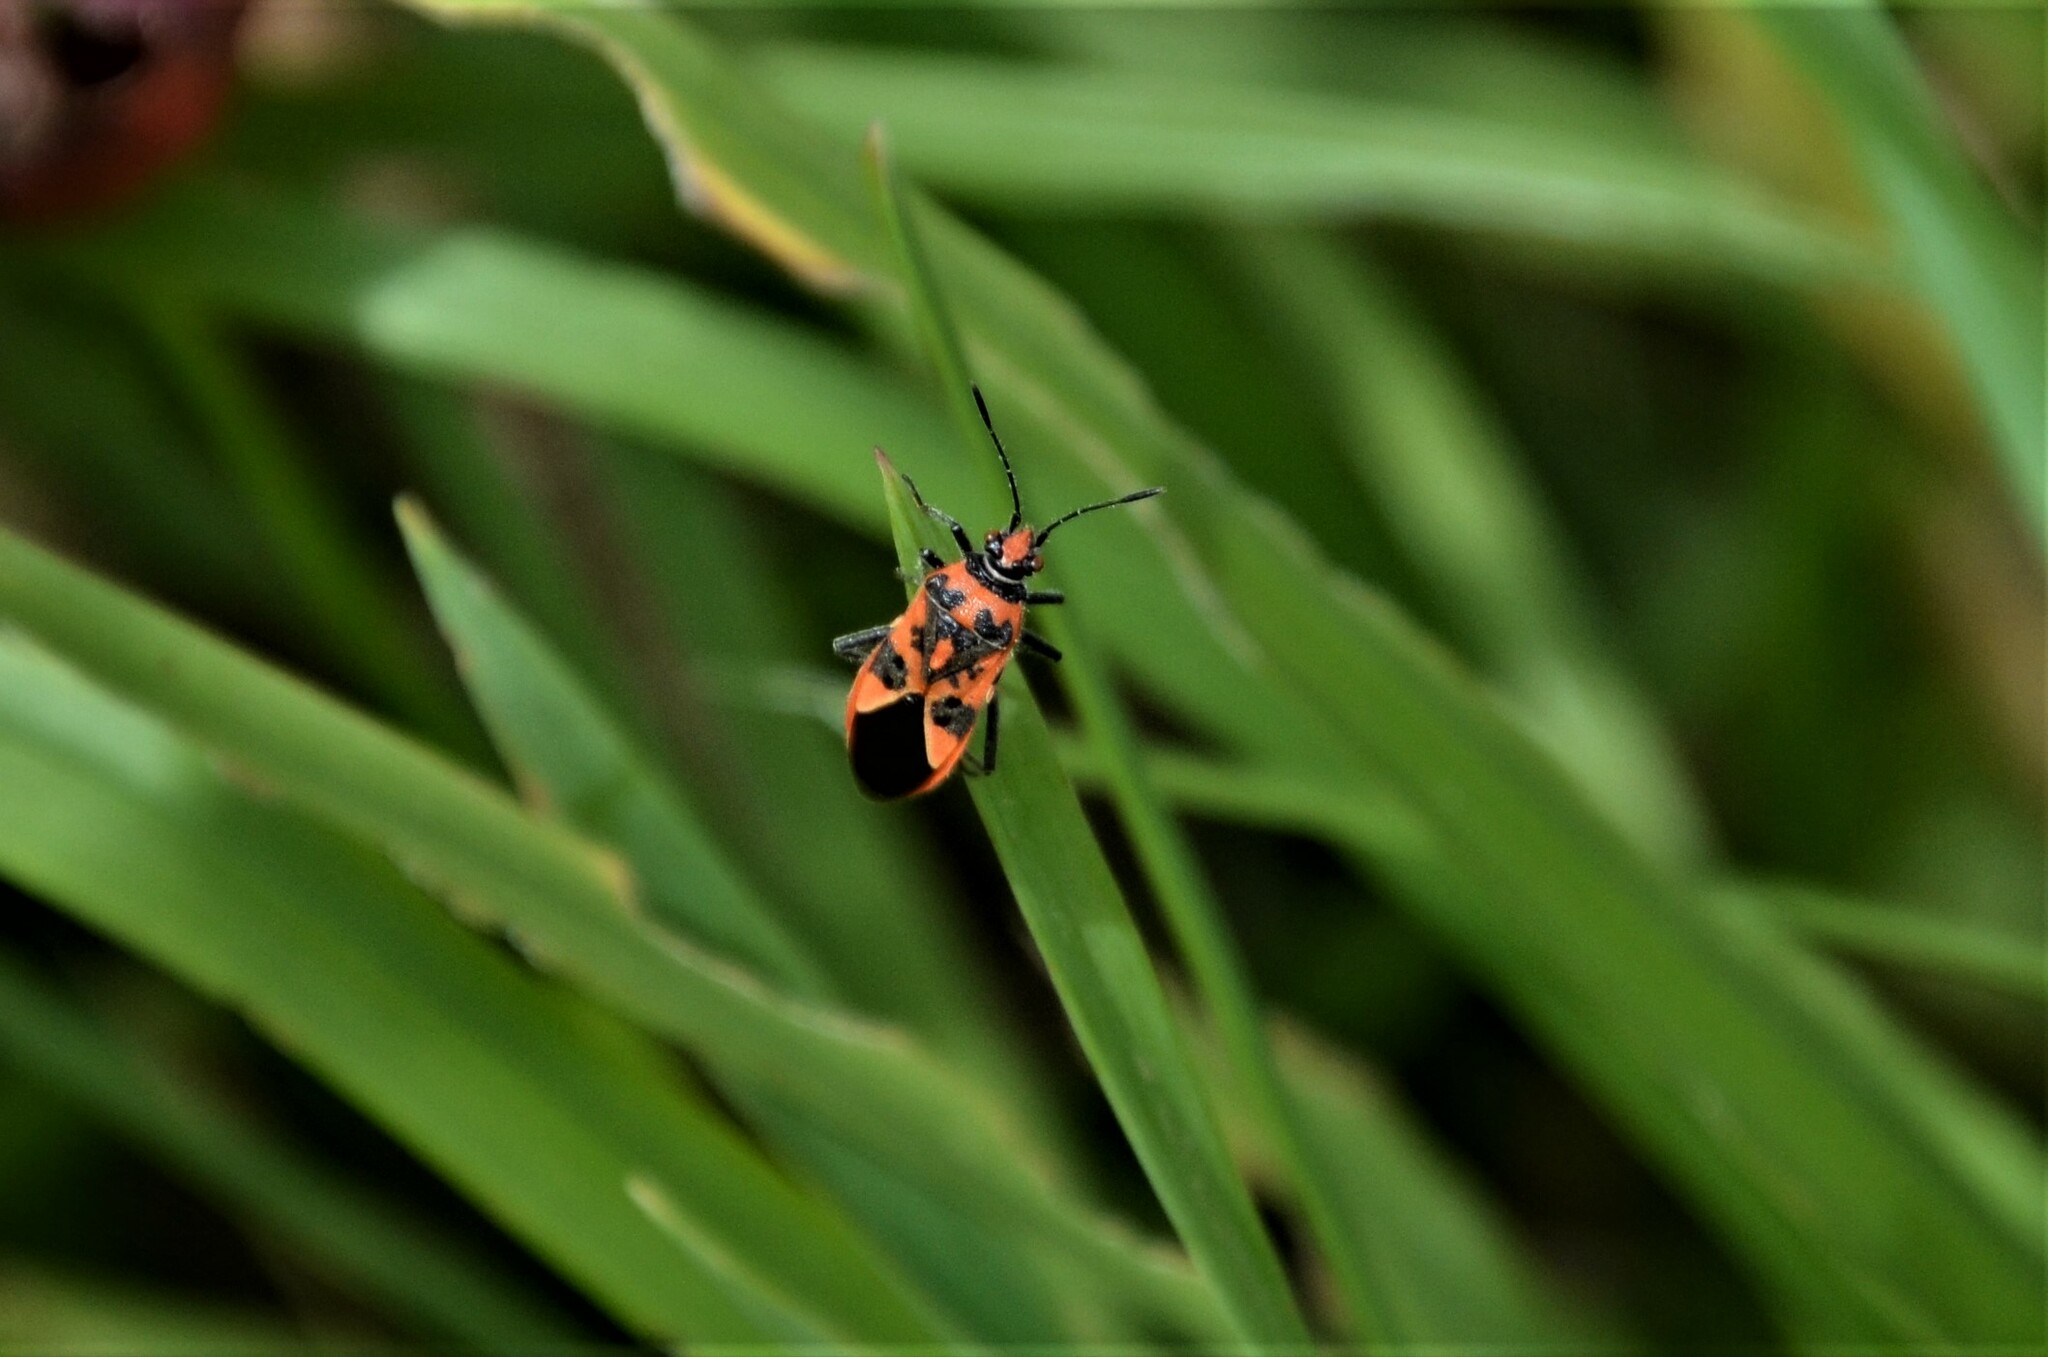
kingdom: Animalia
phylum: Arthropoda
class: Insecta
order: Hemiptera
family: Rhopalidae
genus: Corizus
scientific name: Corizus hyoscyami
